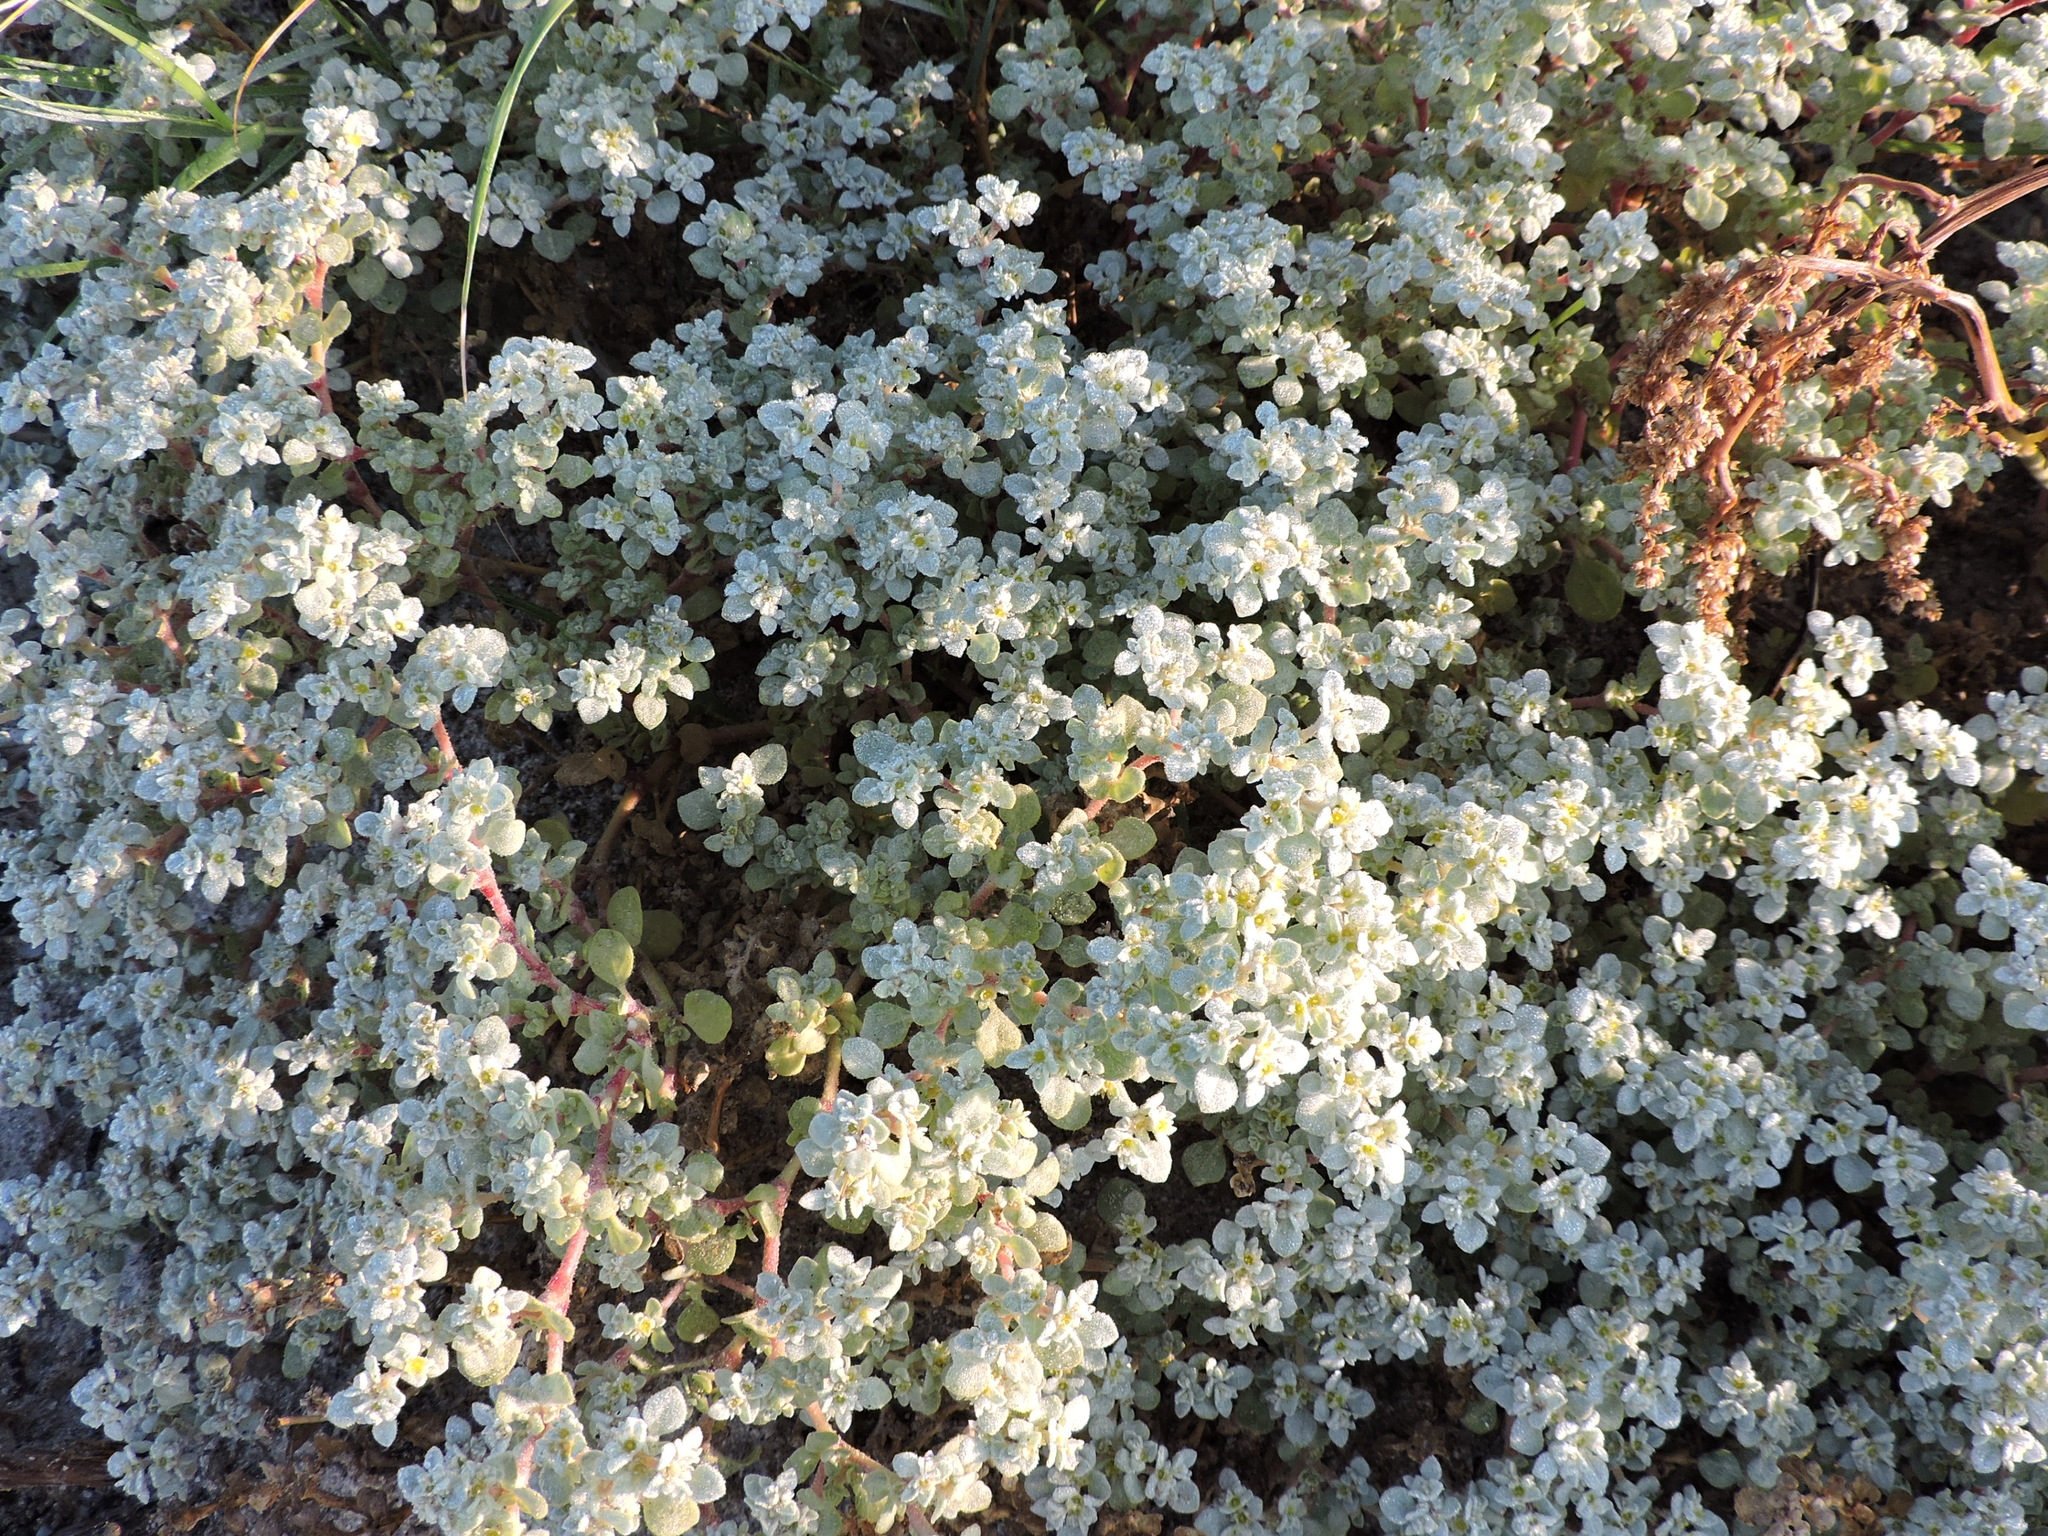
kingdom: Plantae
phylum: Tracheophyta
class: Magnoliopsida
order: Caryophyllales
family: Amaranthaceae
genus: Tidestromia
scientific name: Tidestromia lanuginosa
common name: Woolly tidestromia
